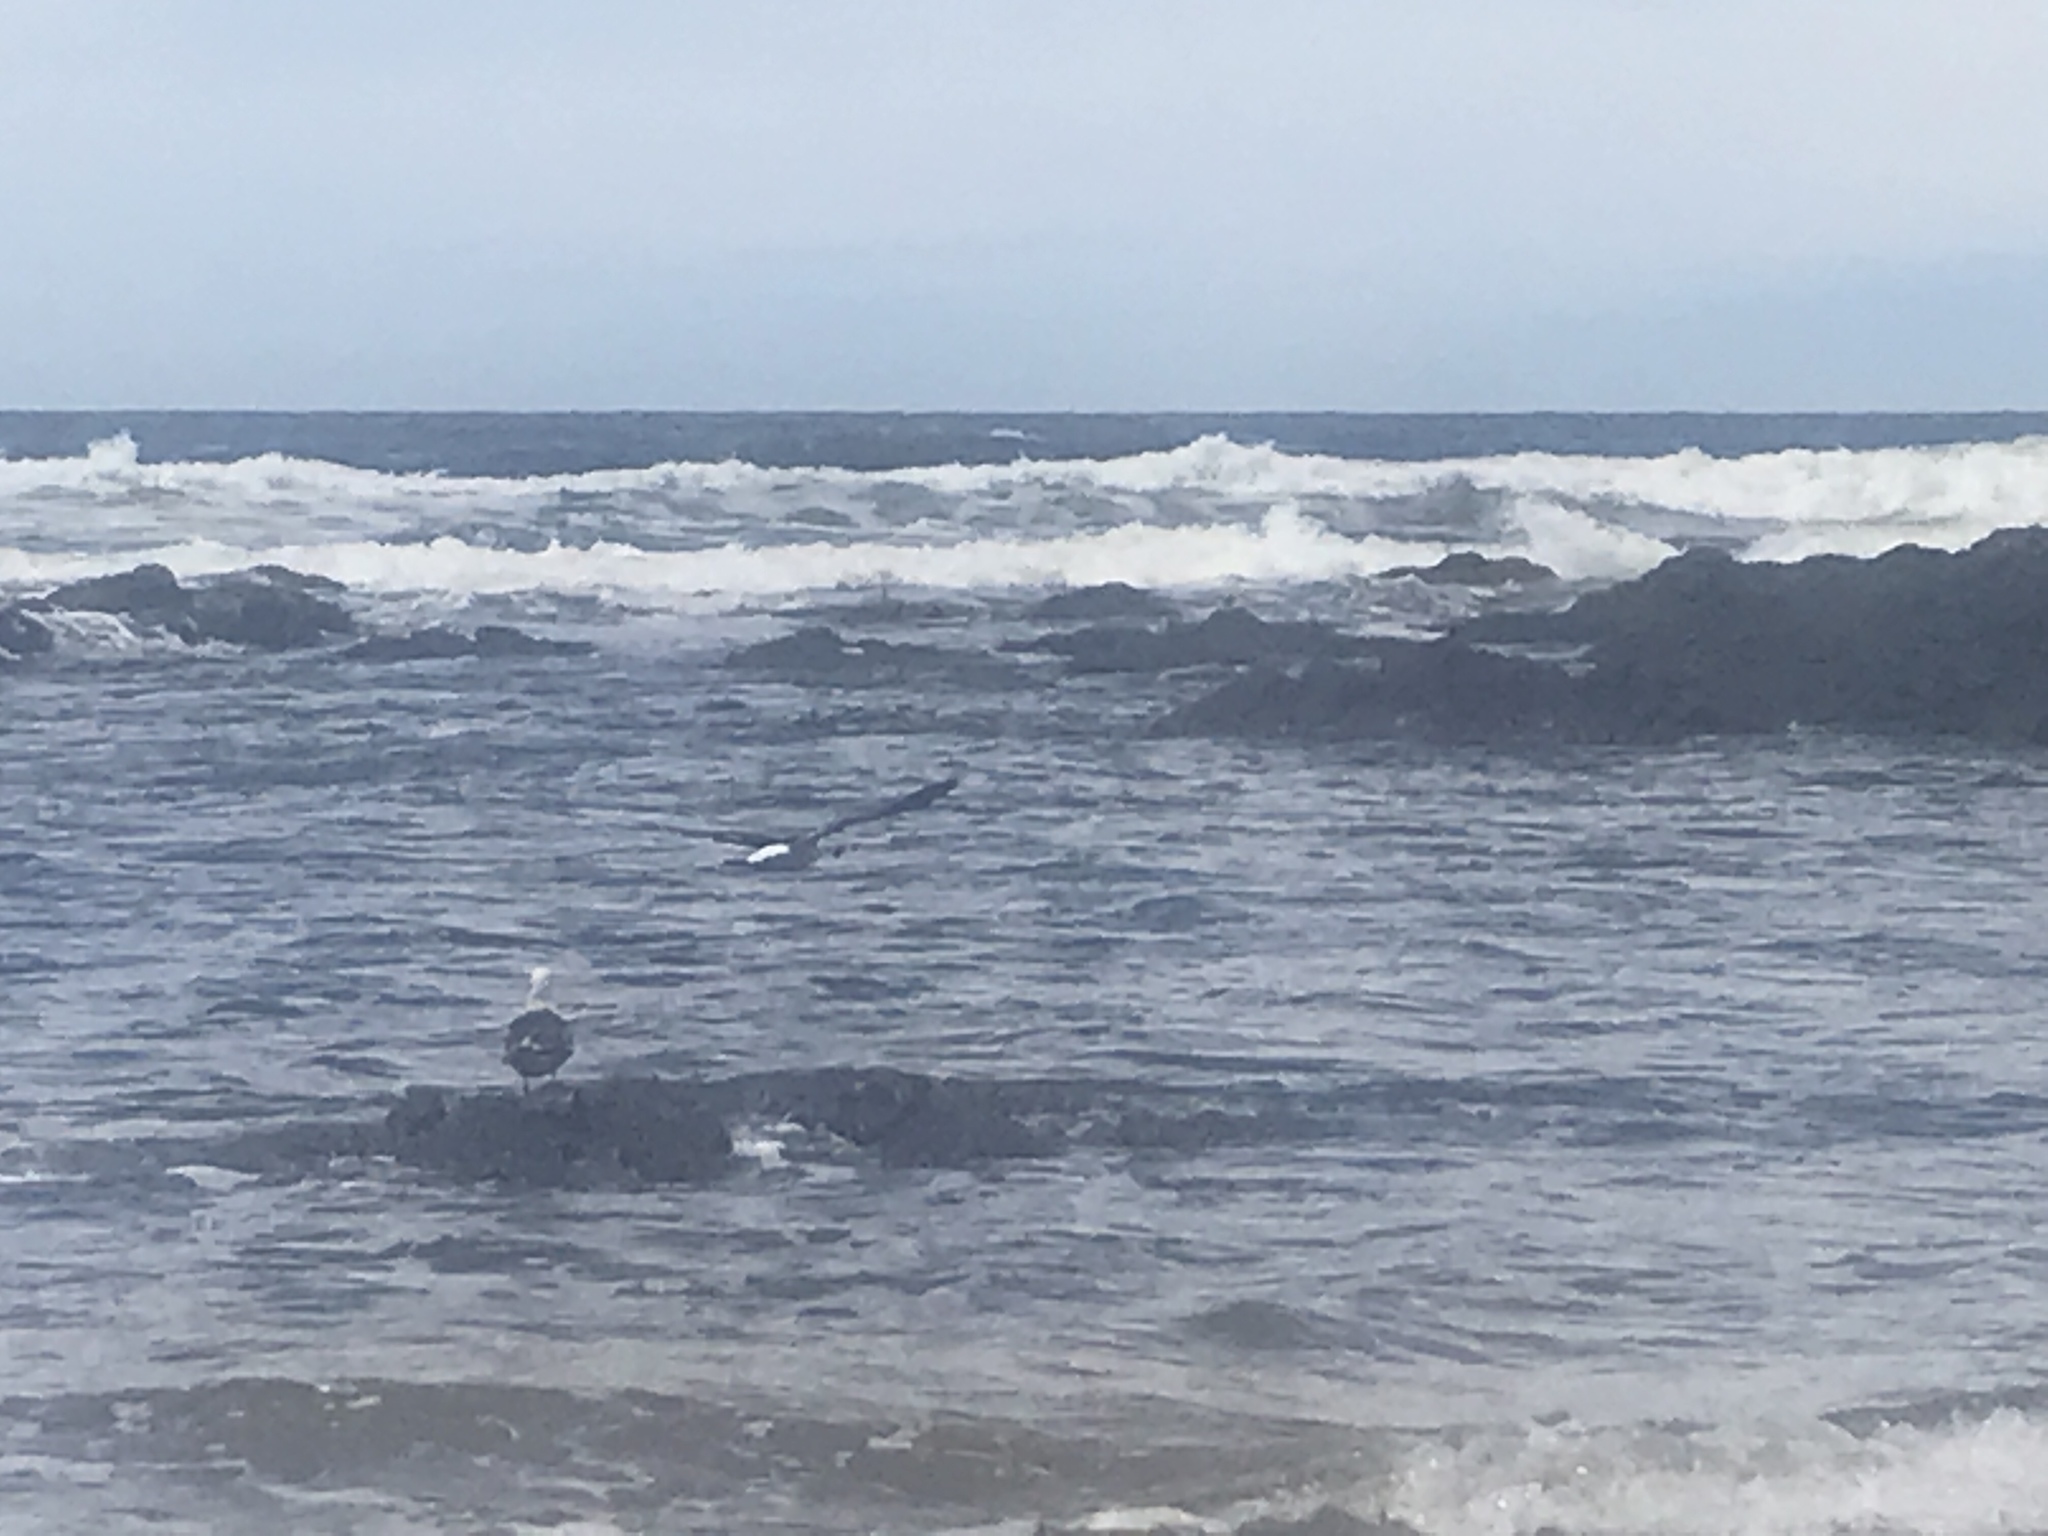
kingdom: Animalia
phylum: Chordata
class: Aves
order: Charadriiformes
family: Laridae
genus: Larus
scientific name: Larus dominicanus
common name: Kelp gull
